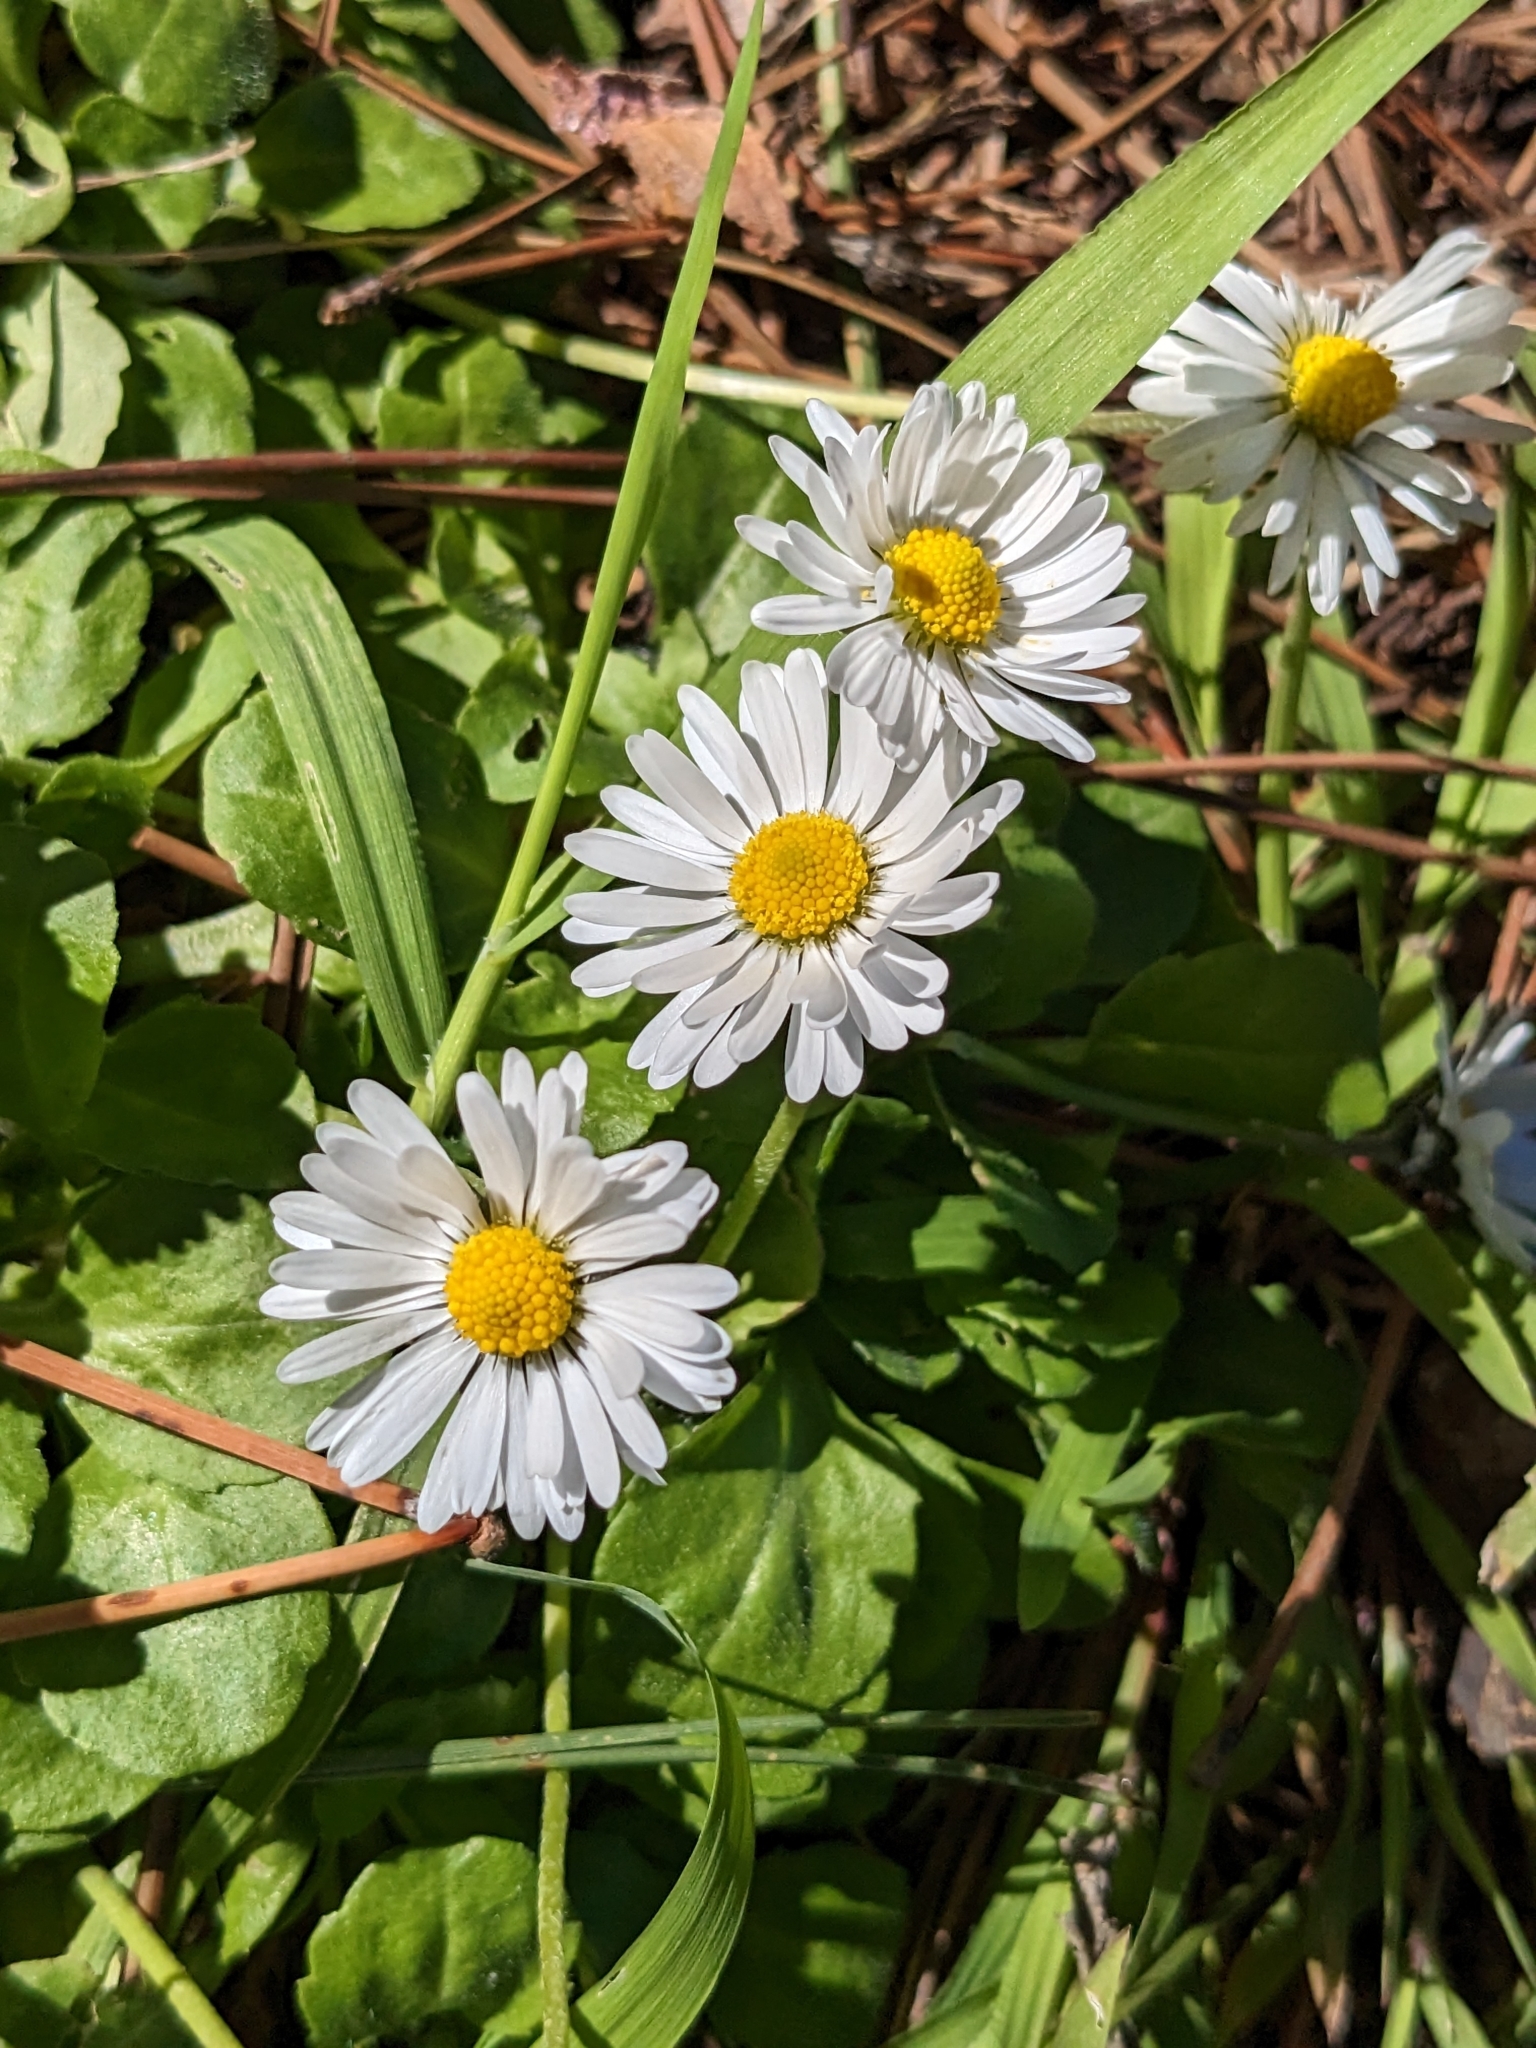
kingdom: Plantae
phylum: Tracheophyta
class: Magnoliopsida
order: Asterales
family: Asteraceae
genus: Bellis
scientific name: Bellis perennis
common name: Lawndaisy
